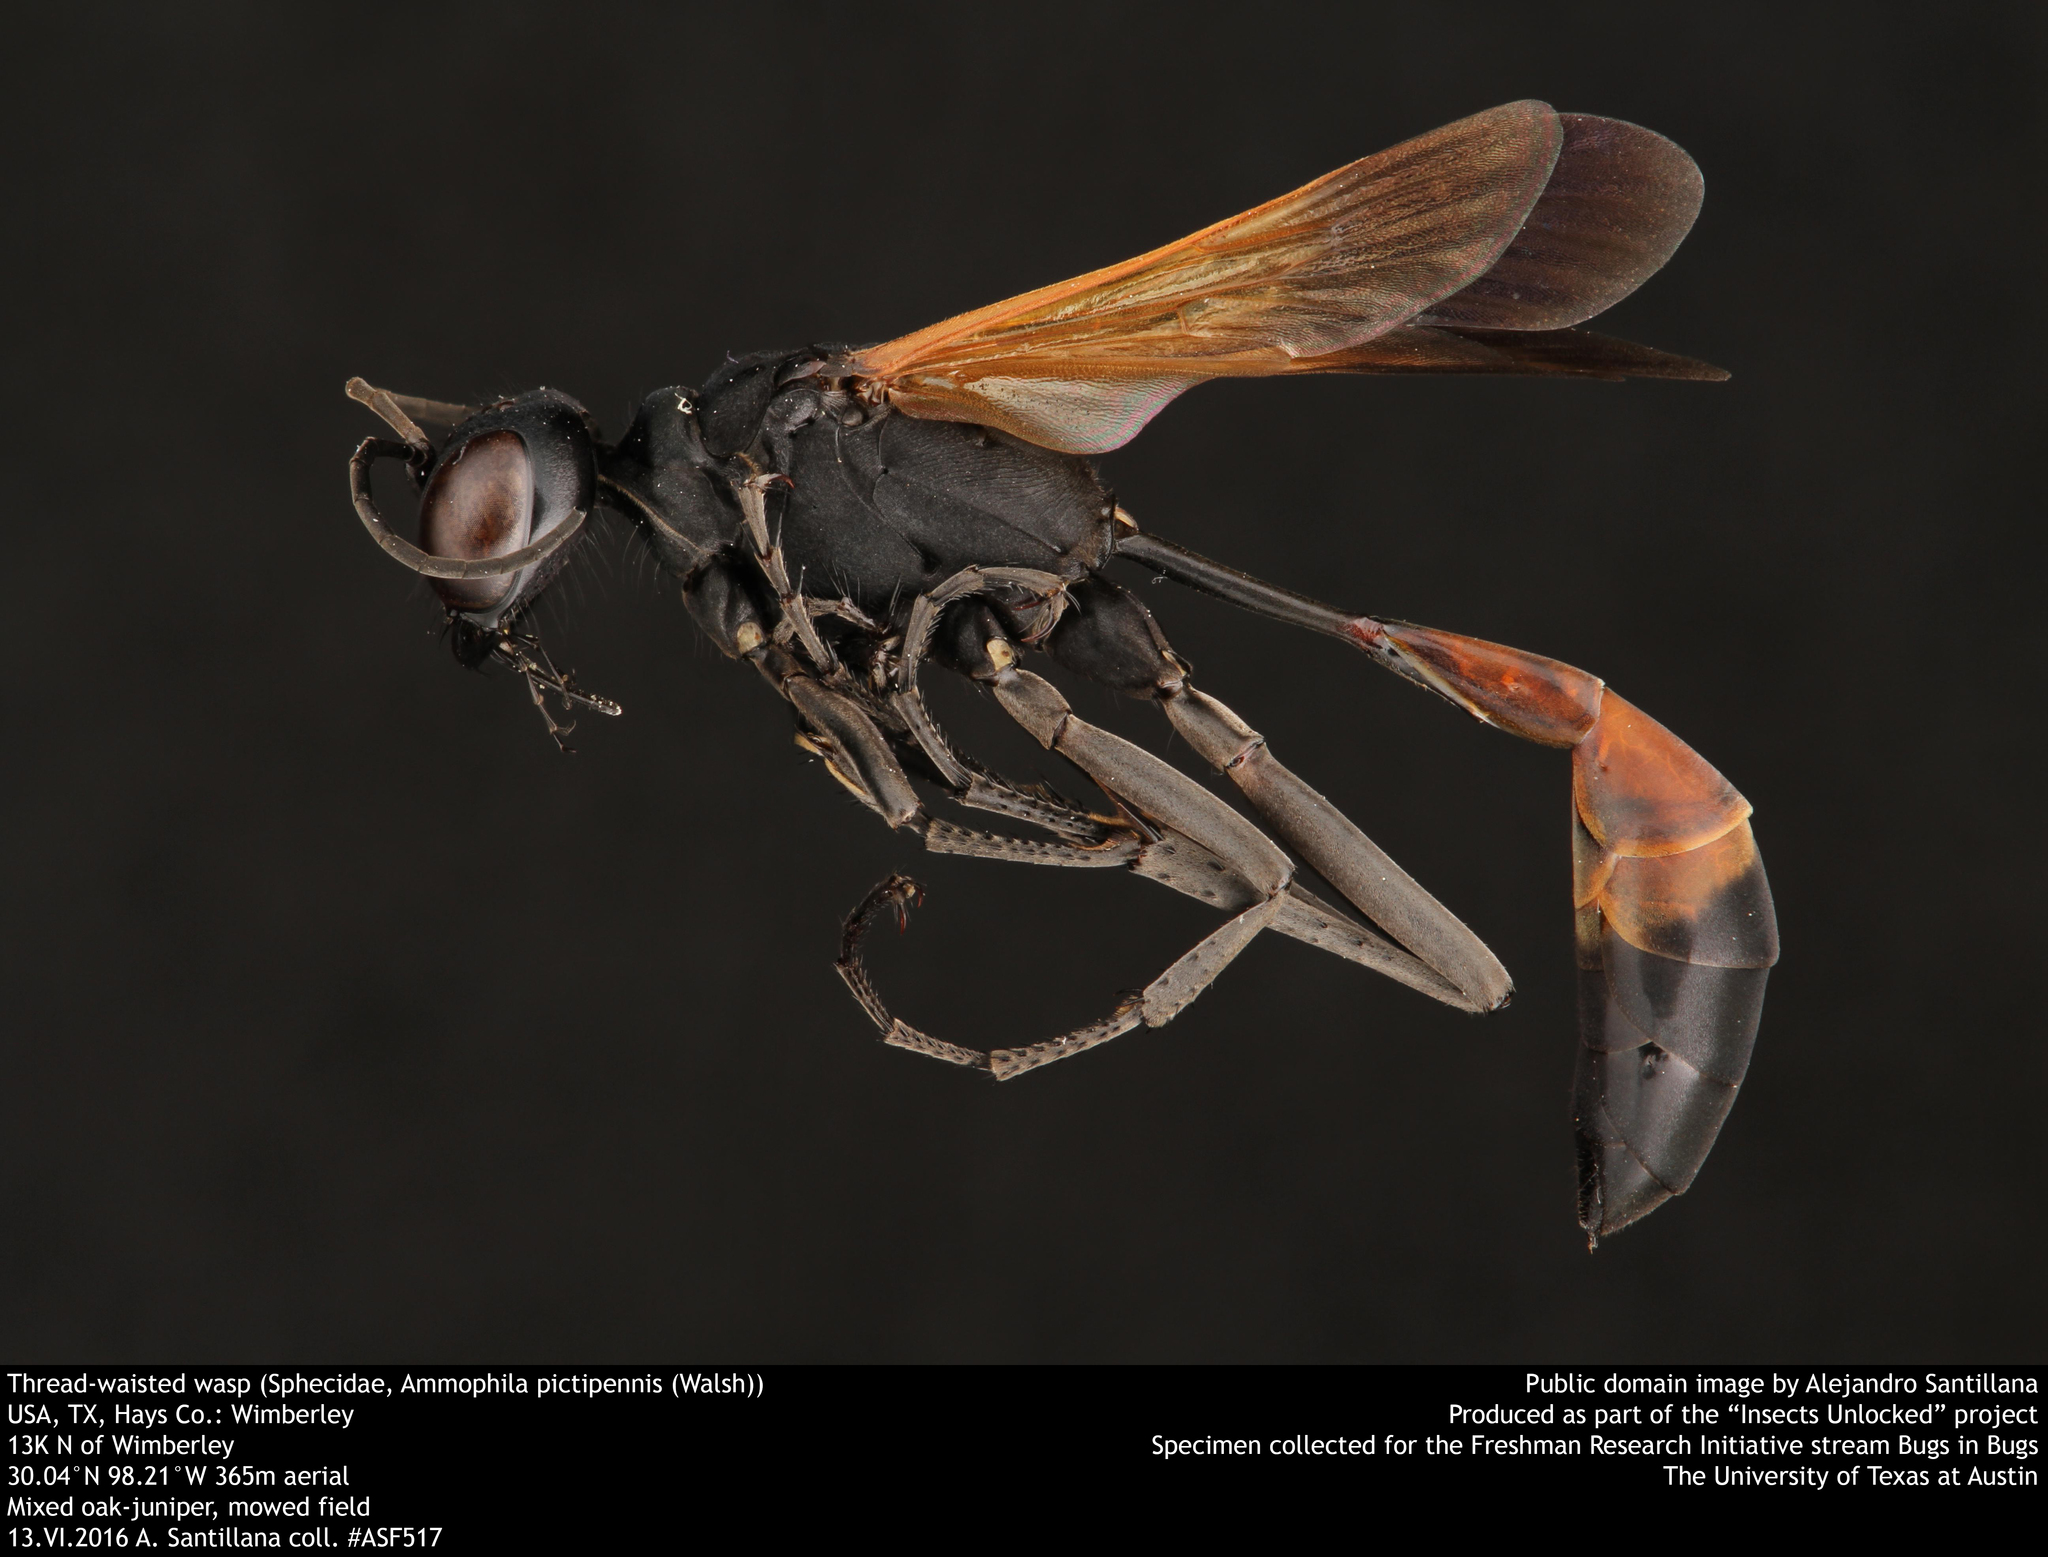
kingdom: Animalia
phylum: Arthropoda
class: Insecta
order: Hymenoptera
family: Sphecidae
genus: Ammophila
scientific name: Ammophila
